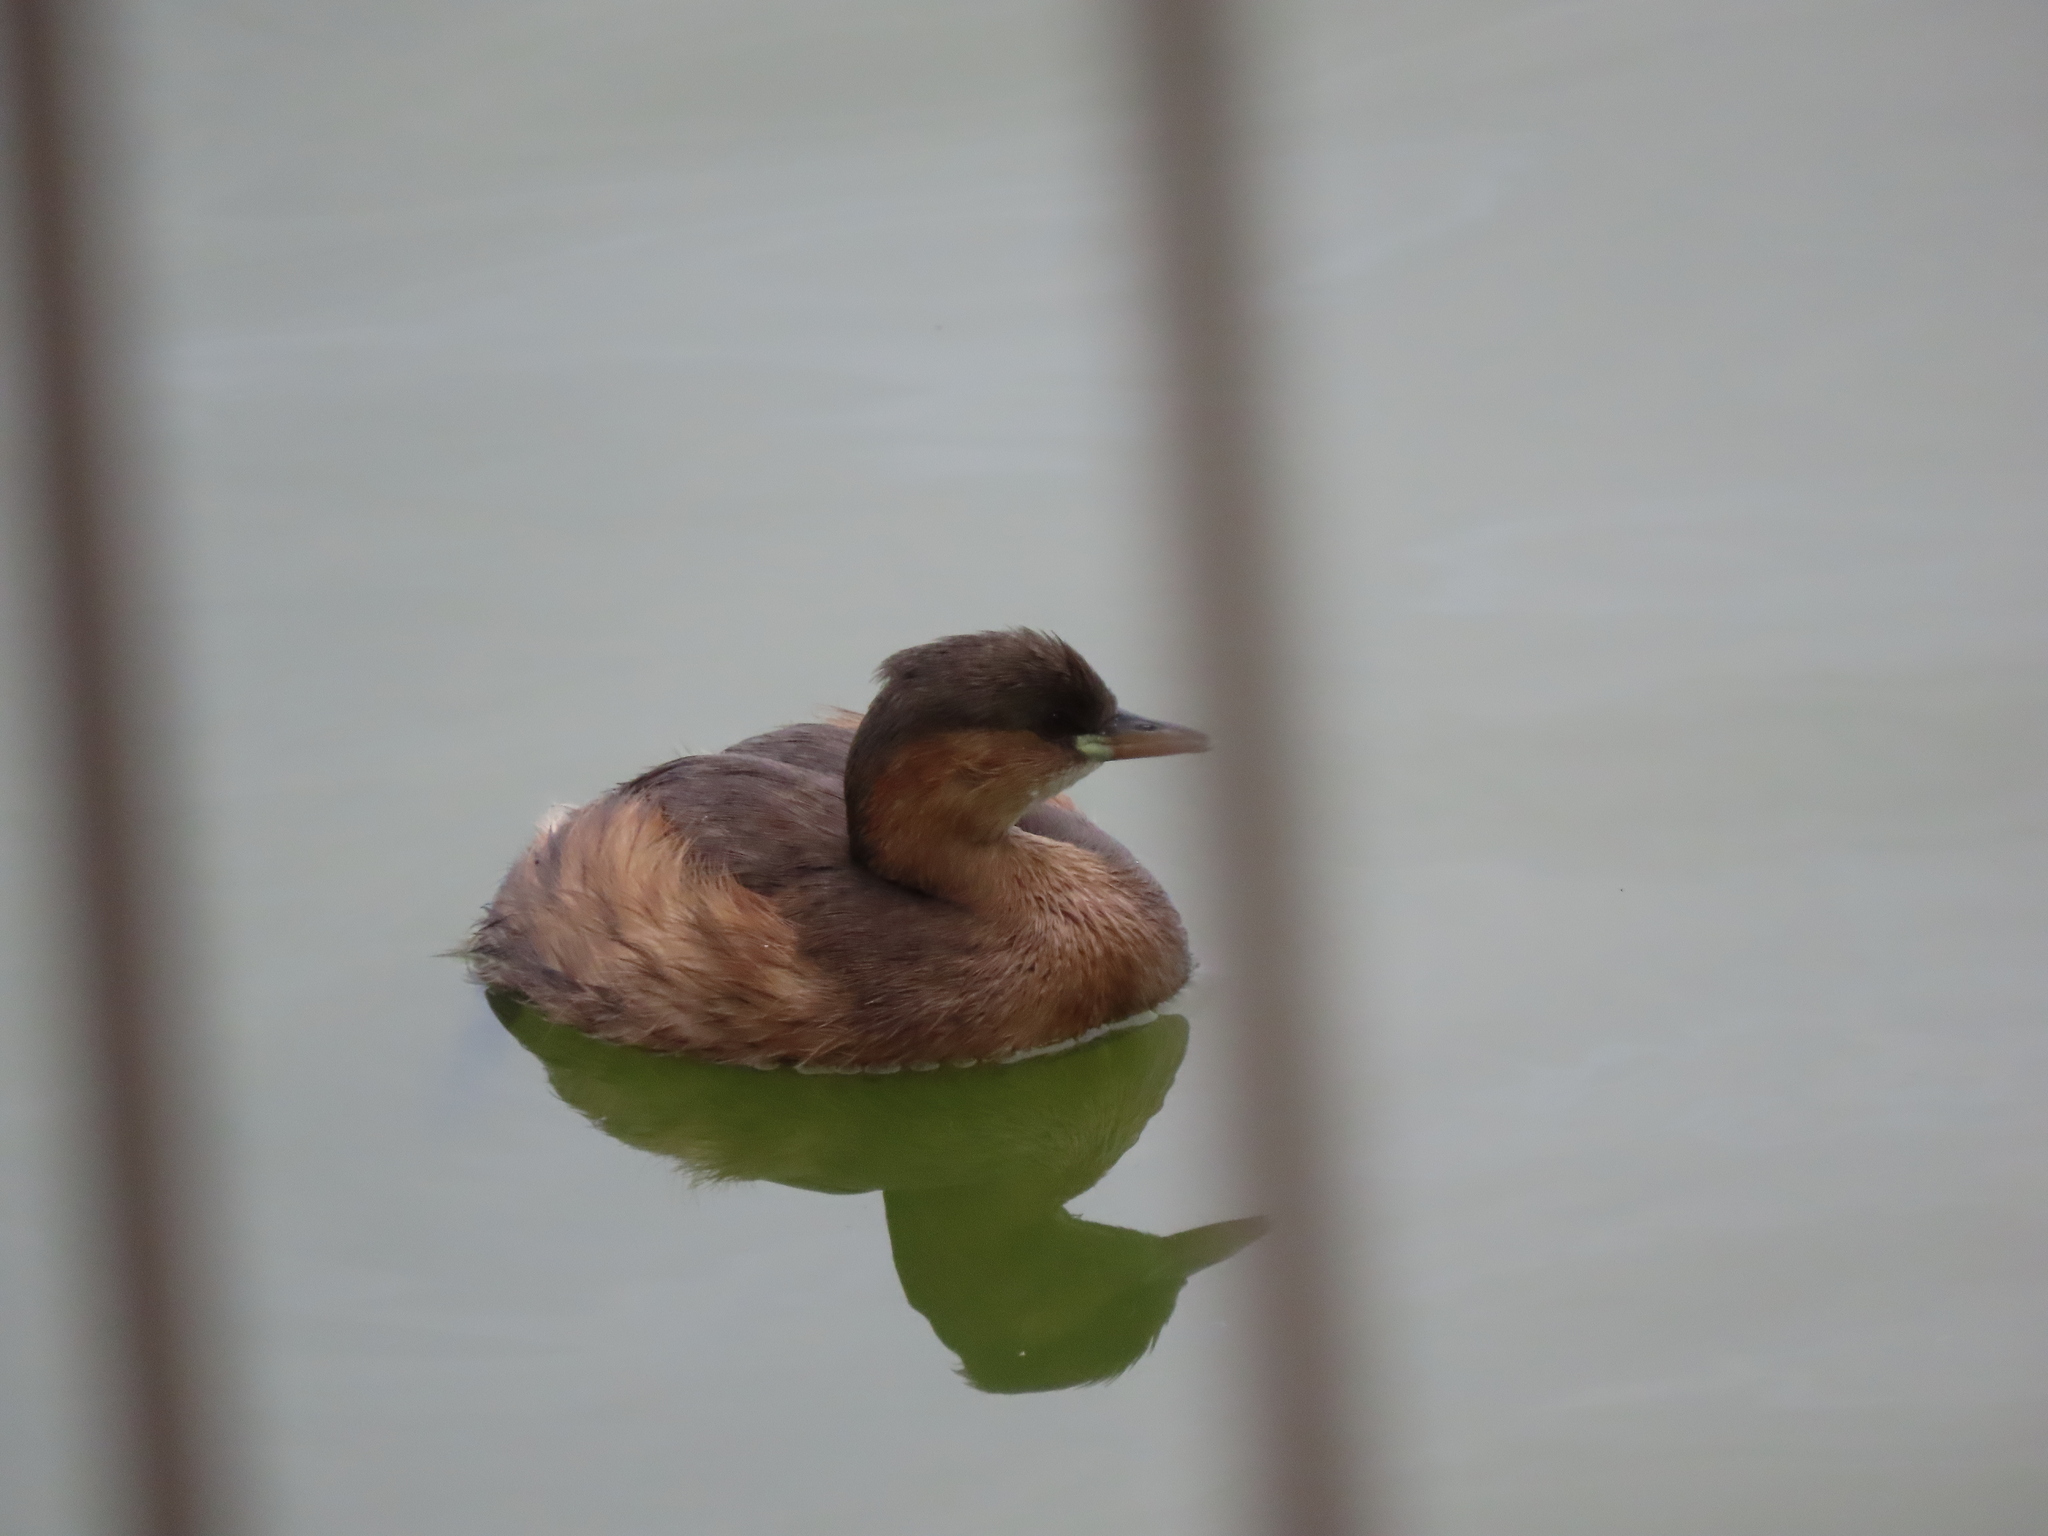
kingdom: Animalia
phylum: Chordata
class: Aves
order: Podicipediformes
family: Podicipedidae
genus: Tachybaptus
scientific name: Tachybaptus ruficollis
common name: Little grebe
